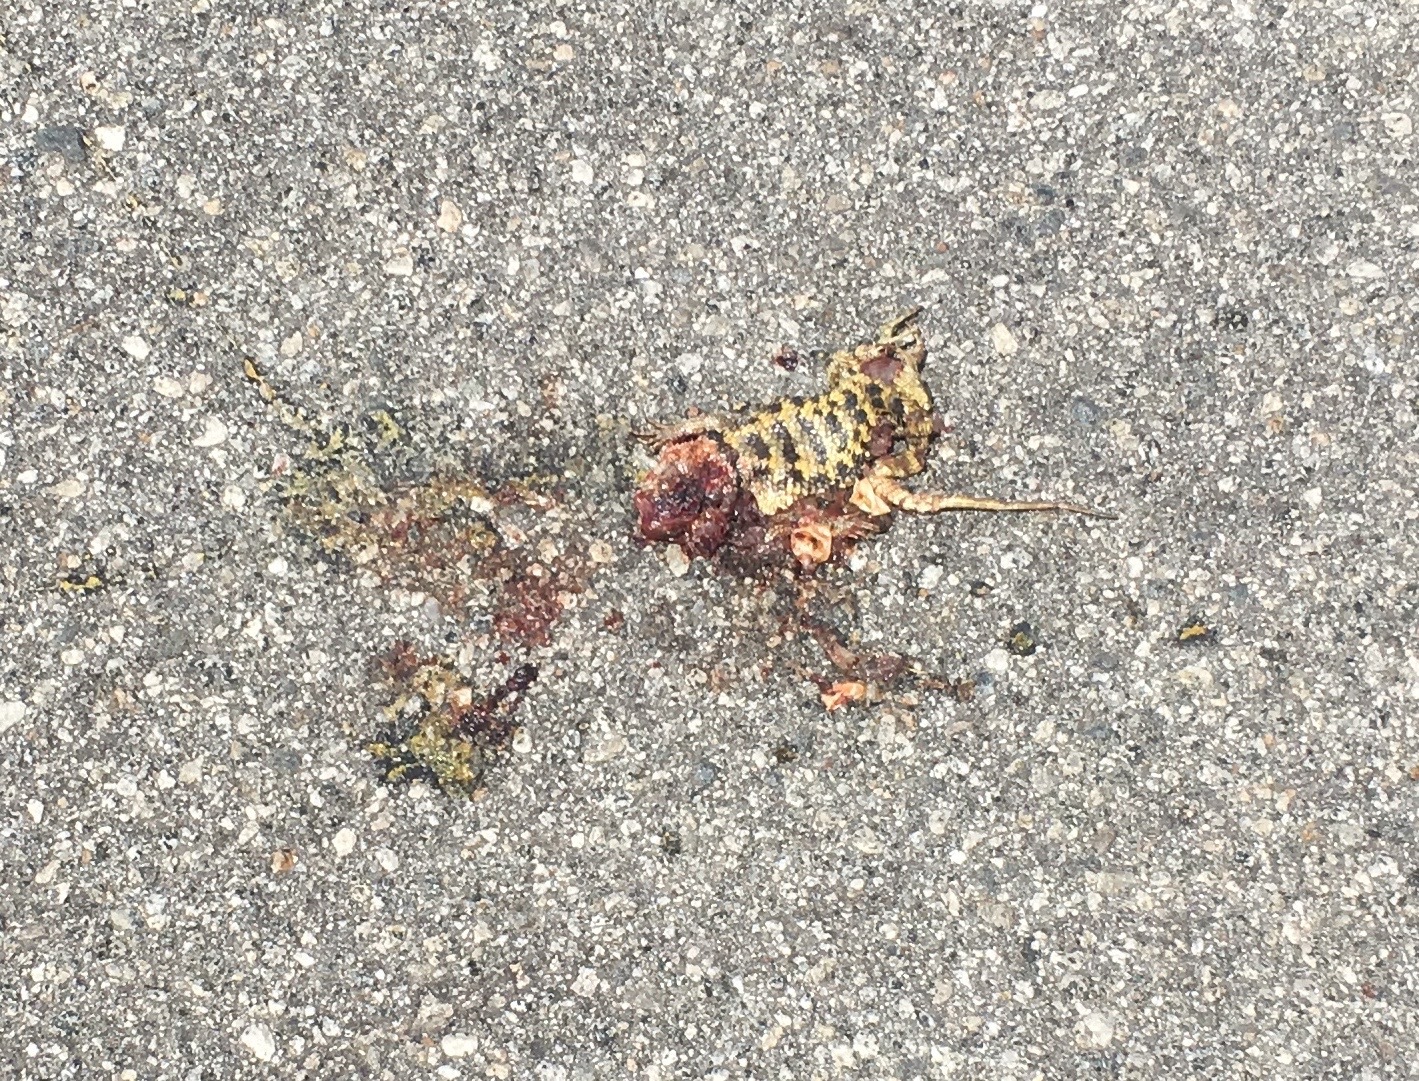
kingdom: Animalia
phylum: Chordata
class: Squamata
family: Phrynosomatidae
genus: Sceloporus
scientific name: Sceloporus uniformis
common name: Yellow-backed spiny lizard
